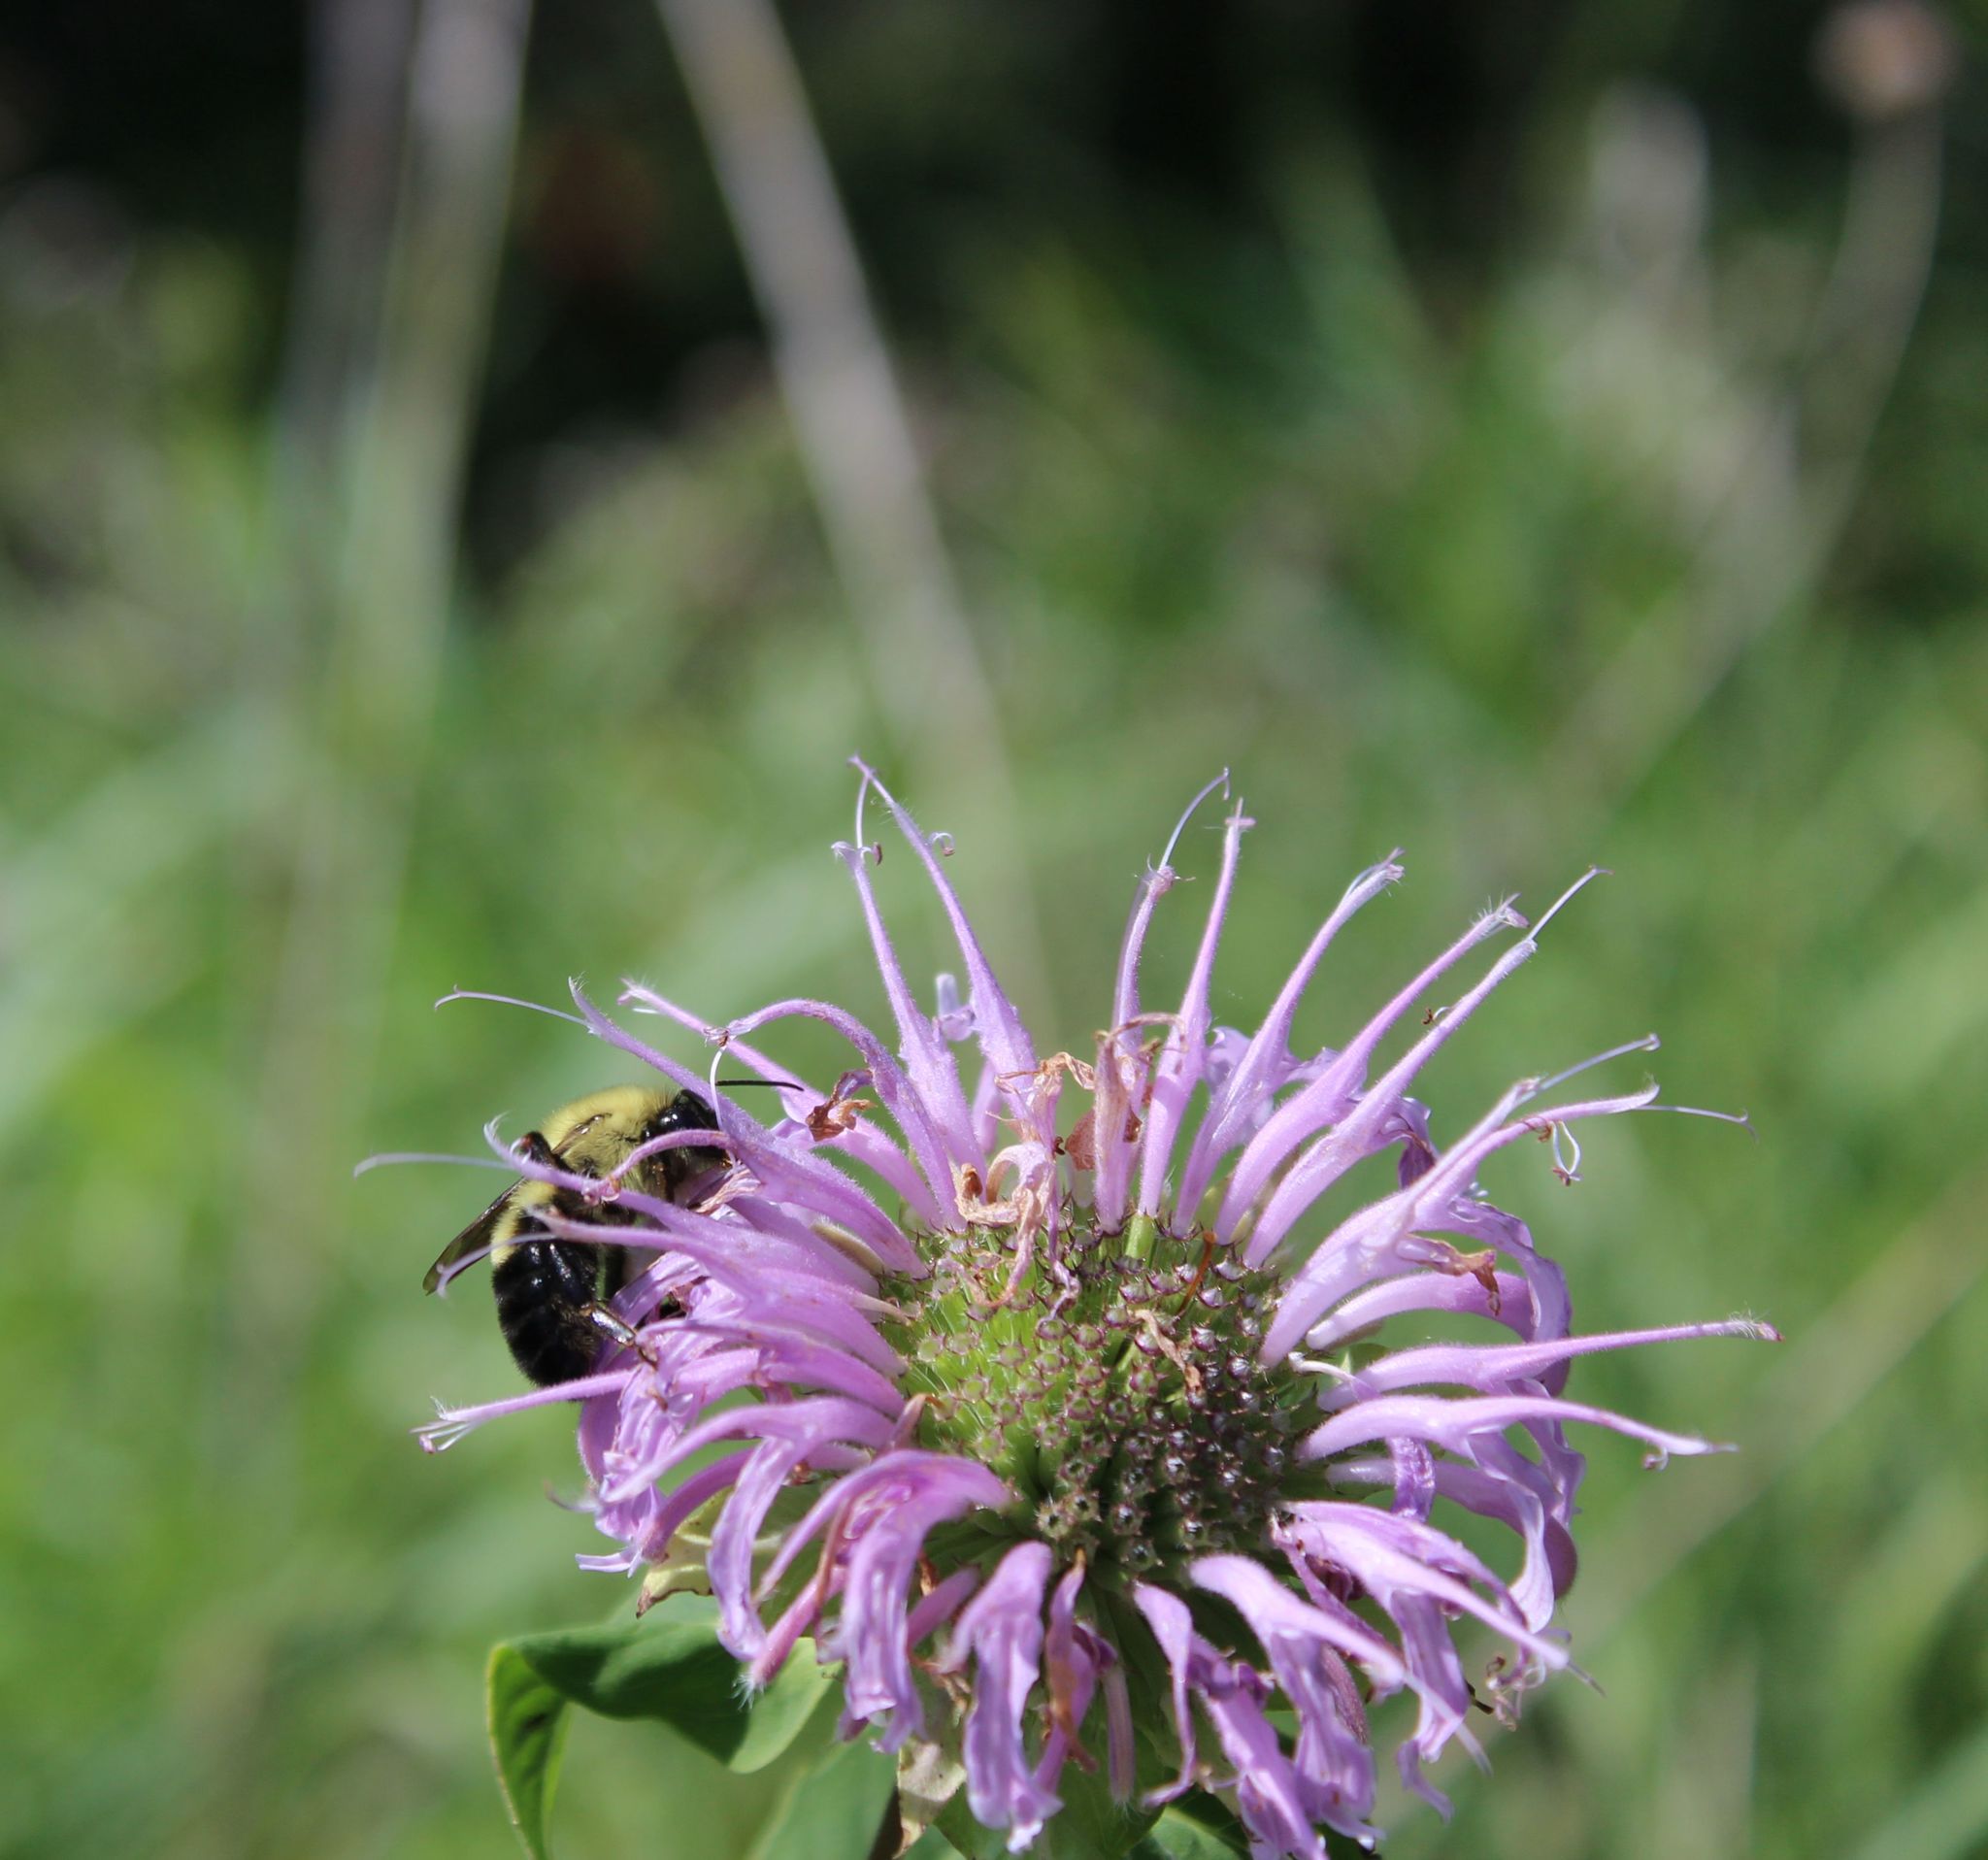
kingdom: Animalia
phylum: Arthropoda
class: Insecta
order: Hymenoptera
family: Apidae
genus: Bombus
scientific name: Bombus bimaculatus
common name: Two-spotted bumble bee
